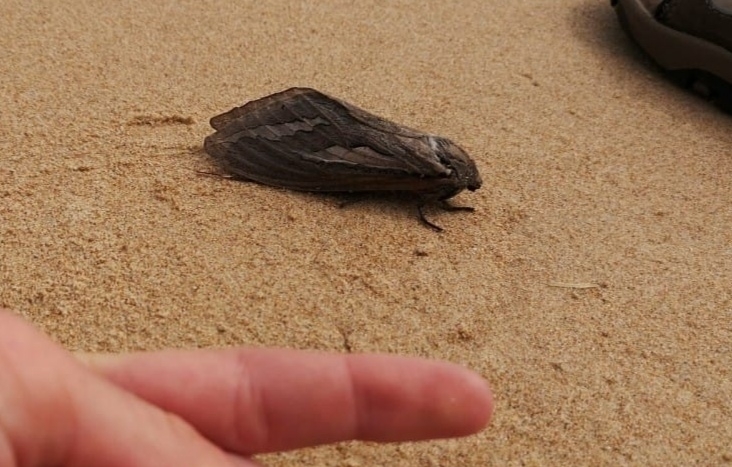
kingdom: Animalia
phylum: Arthropoda
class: Insecta
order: Lepidoptera
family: Hepialidae
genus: Abantiades
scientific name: Abantiades magnificus
